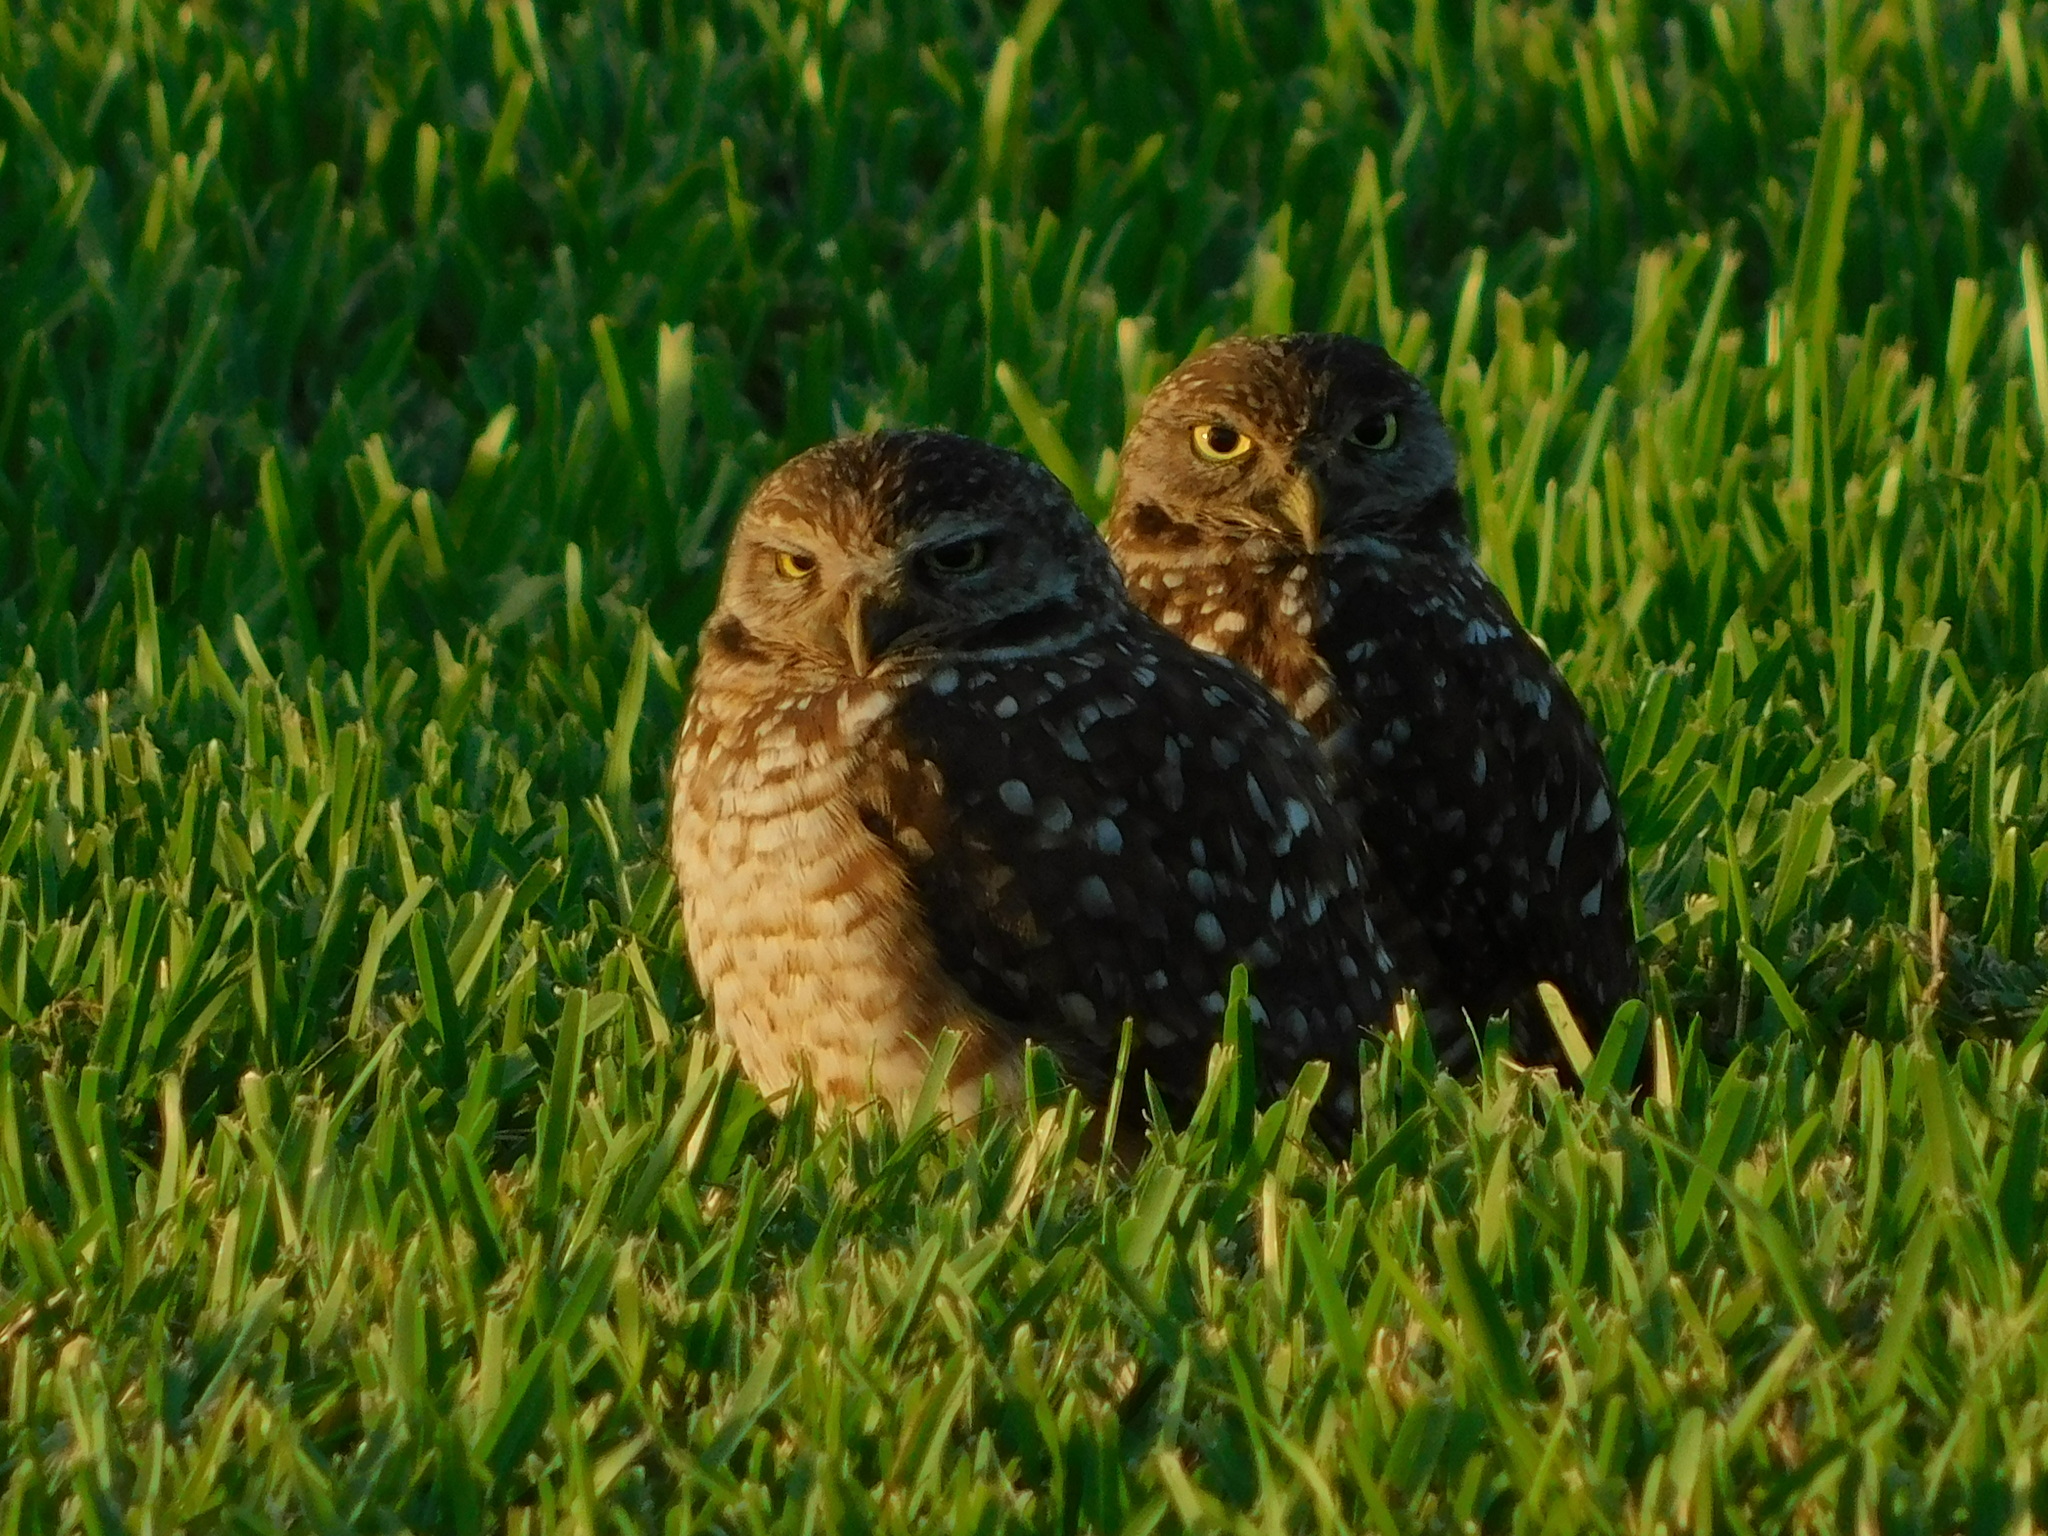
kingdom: Animalia
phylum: Chordata
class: Aves
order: Strigiformes
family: Strigidae
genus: Athene
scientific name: Athene cunicularia
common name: Burrowing owl
